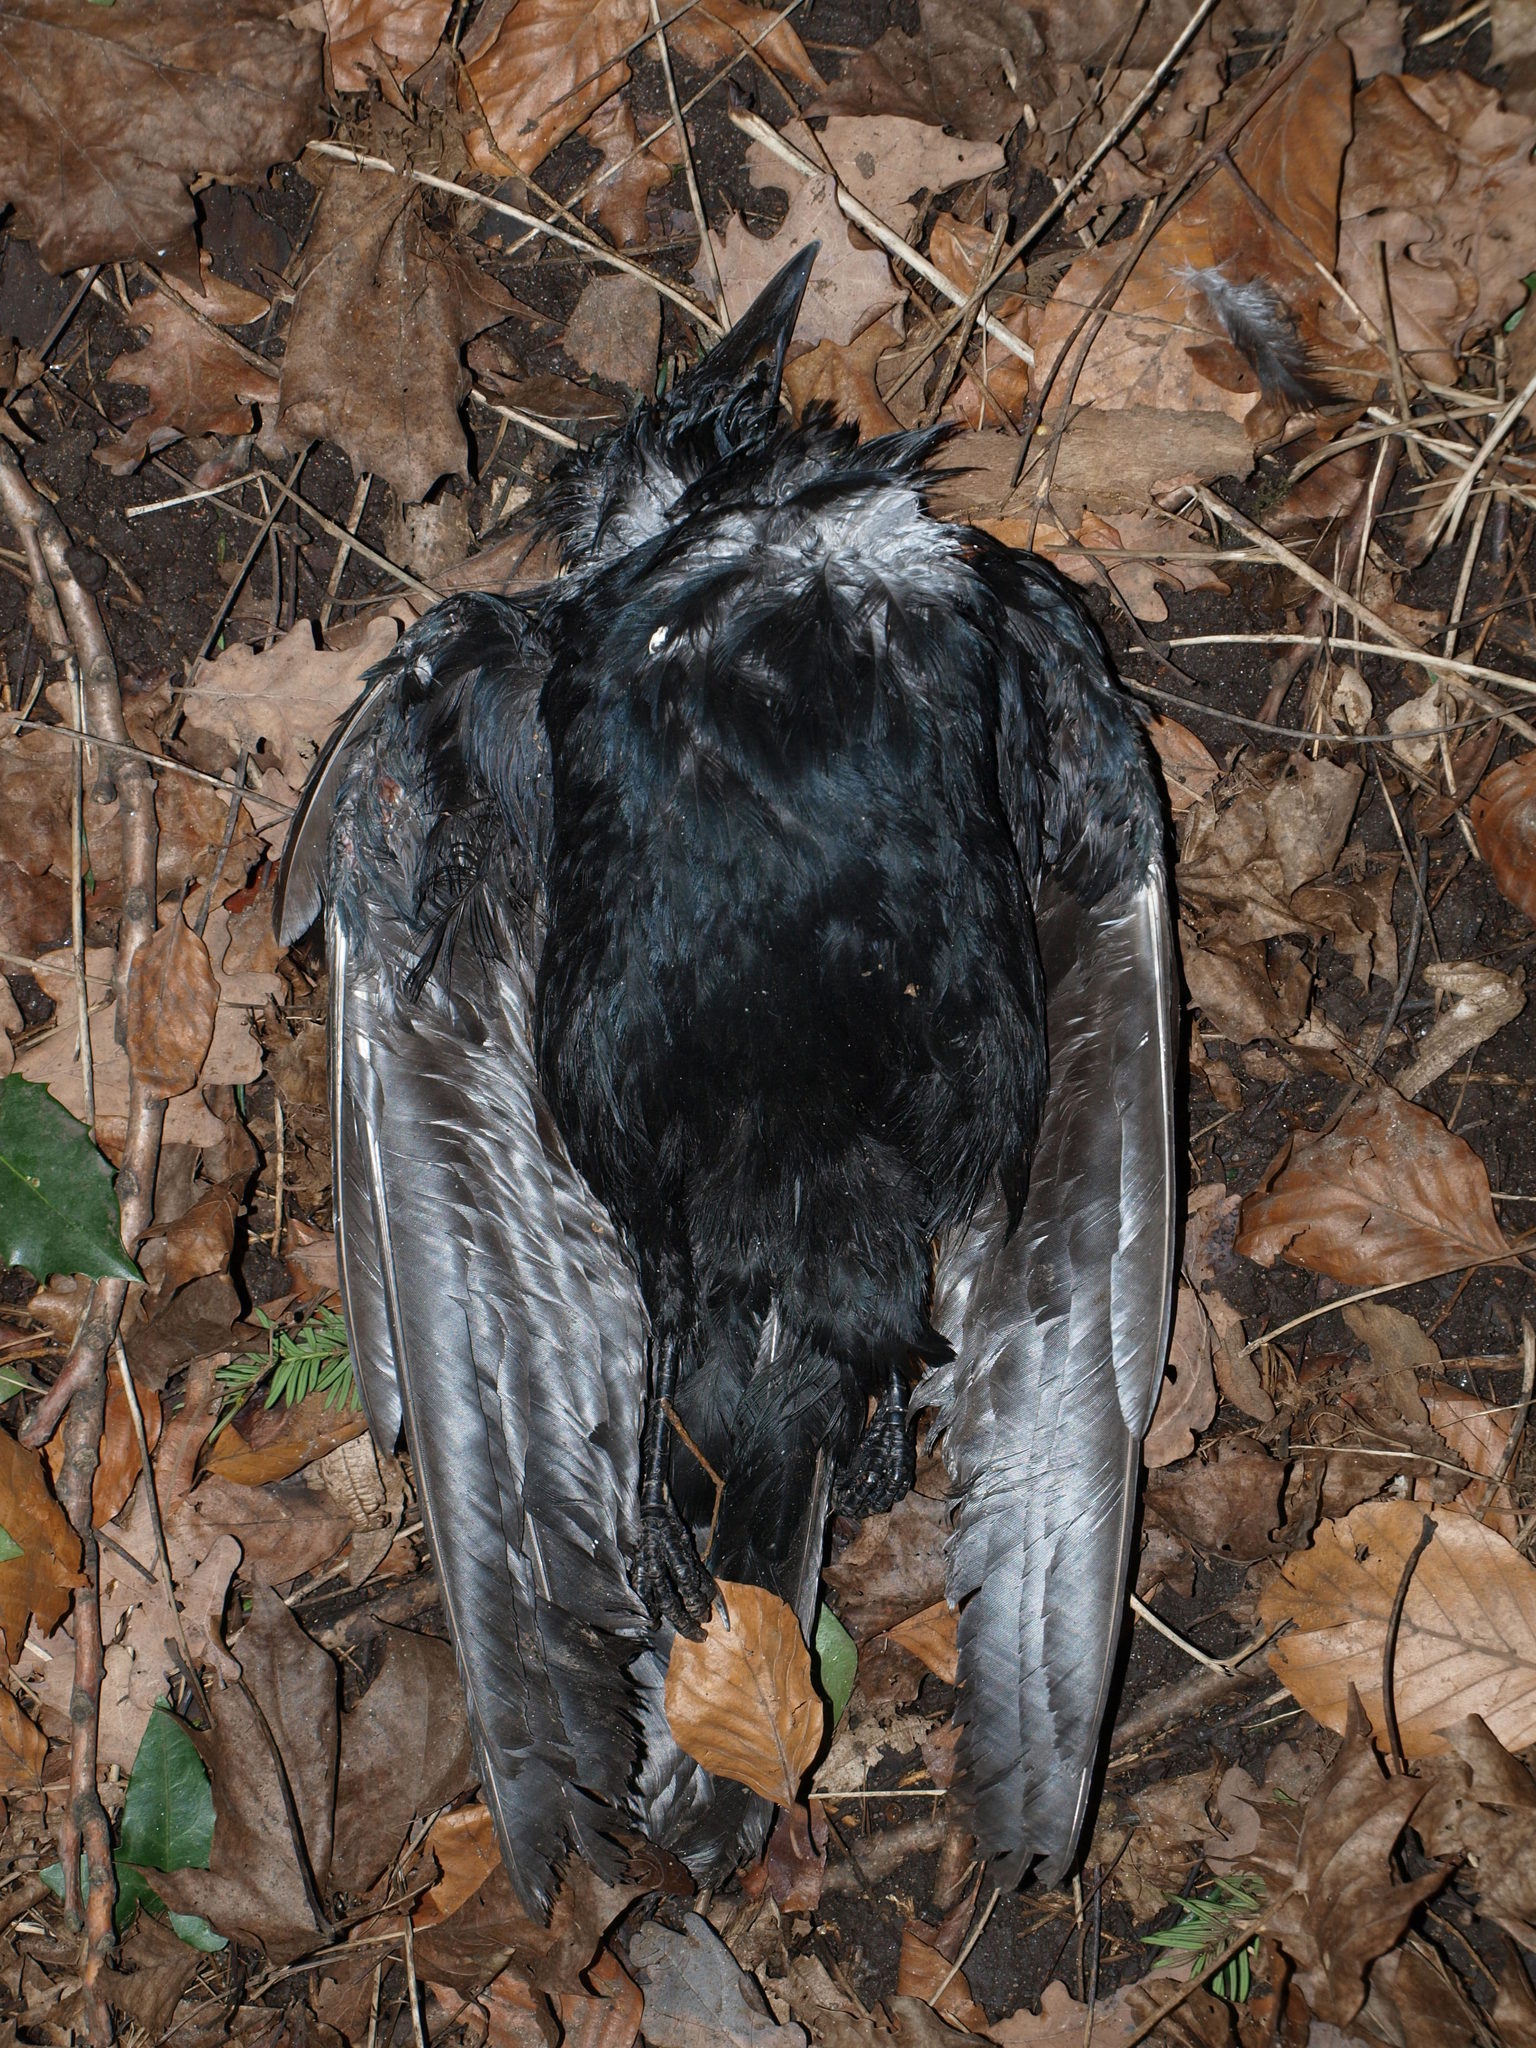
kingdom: Animalia
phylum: Chordata
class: Aves
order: Passeriformes
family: Corvidae
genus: Corvus
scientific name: Corvus corone
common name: Carrion crow
